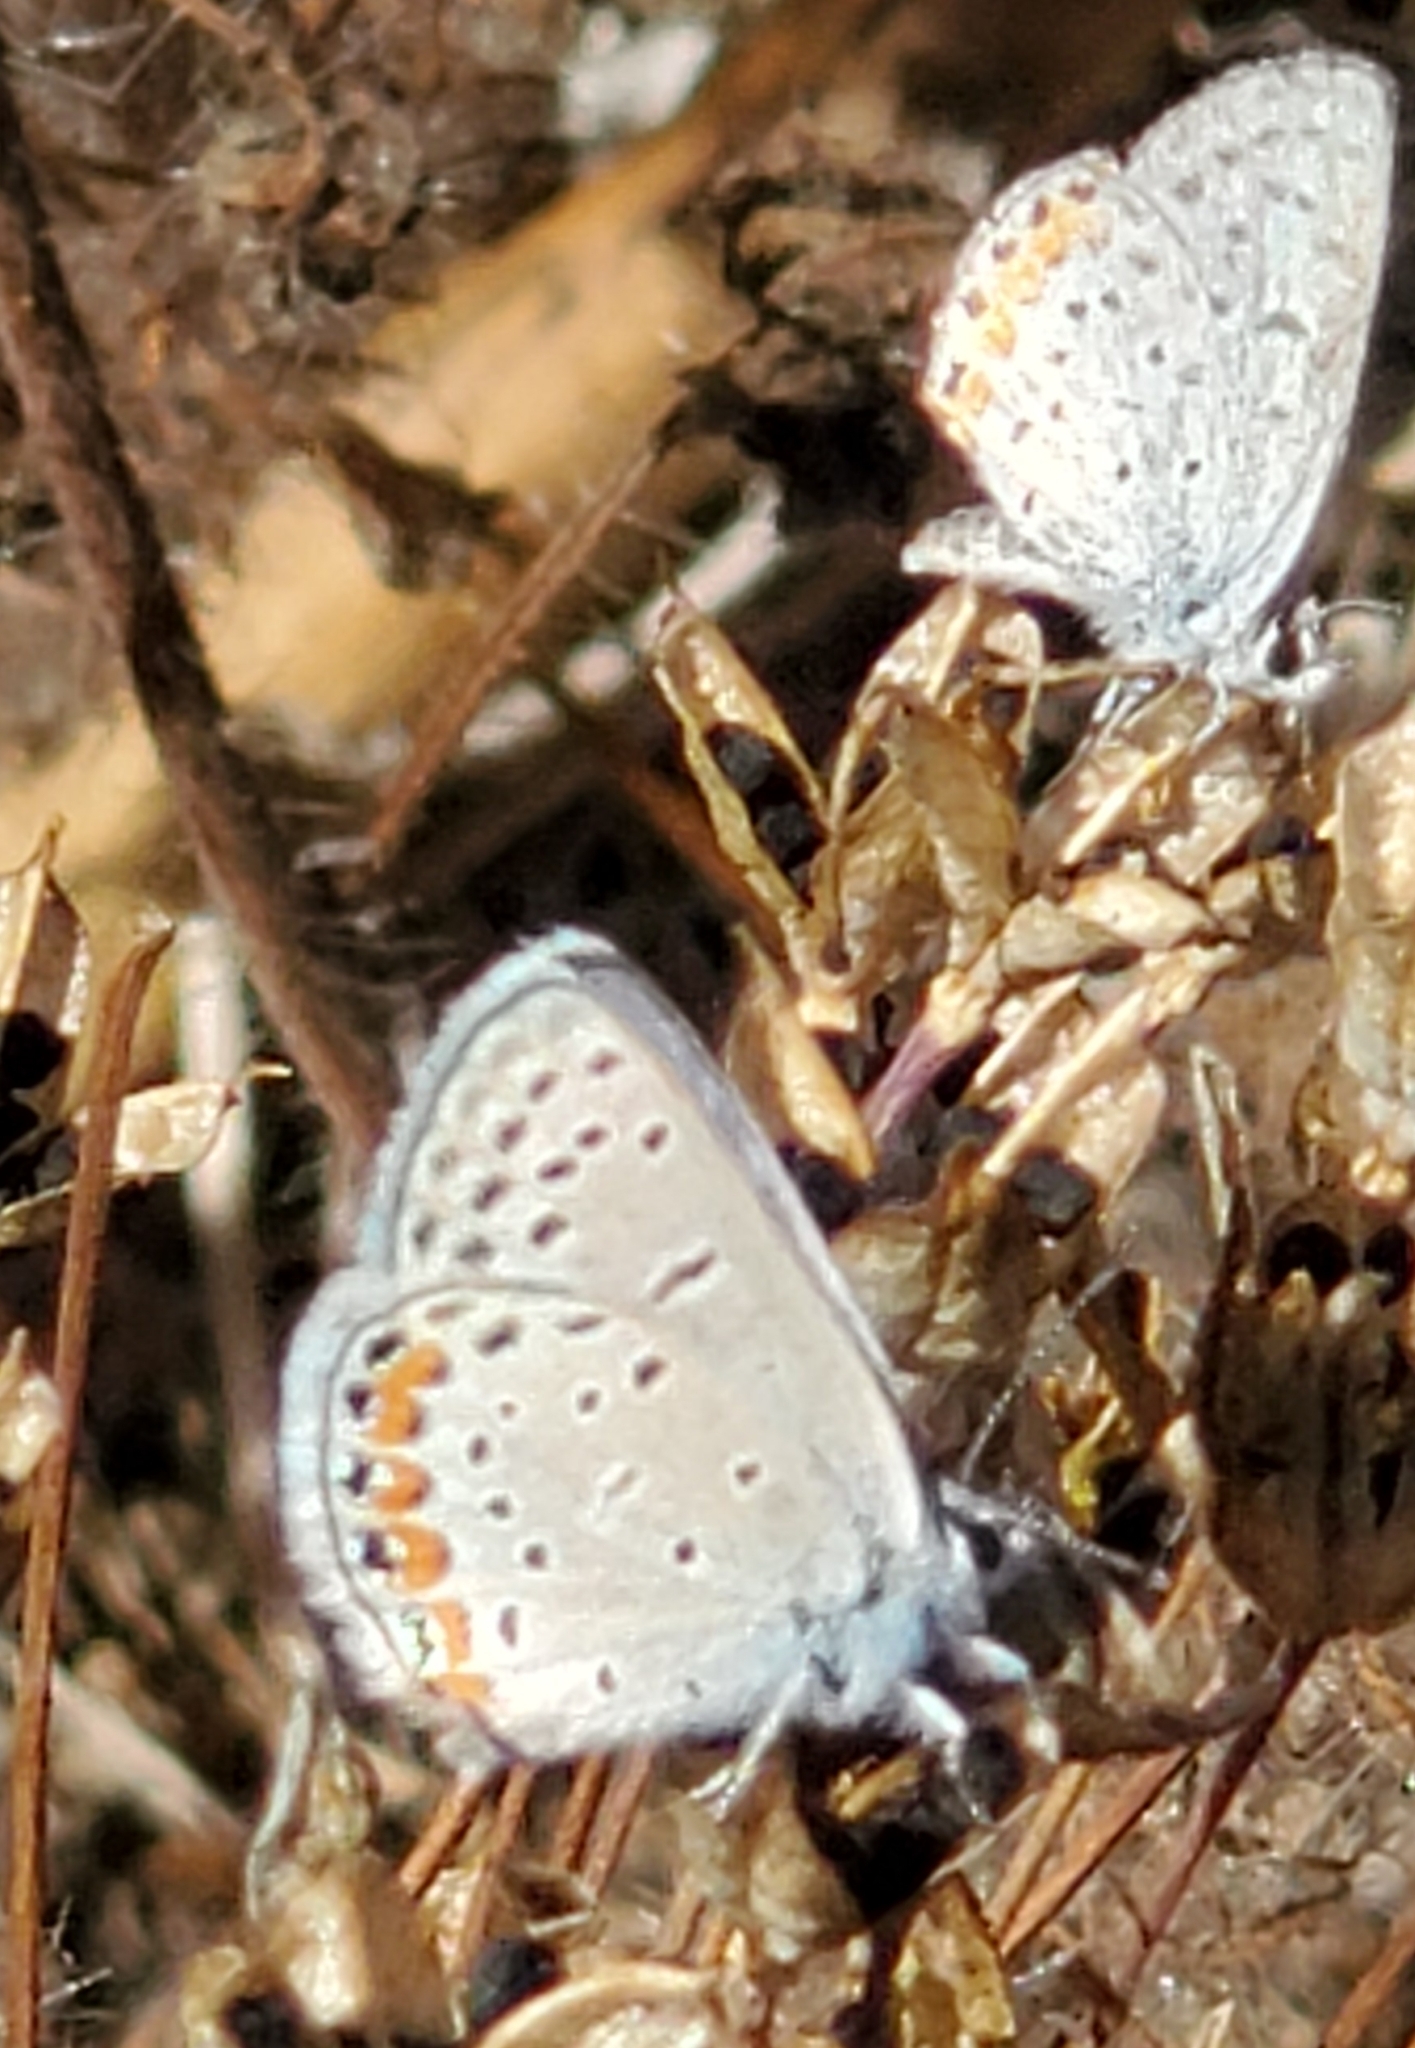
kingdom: Animalia
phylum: Arthropoda
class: Insecta
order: Lepidoptera
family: Lycaenidae
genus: Icaricia
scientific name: Icaricia acmon
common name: Acmon blue
